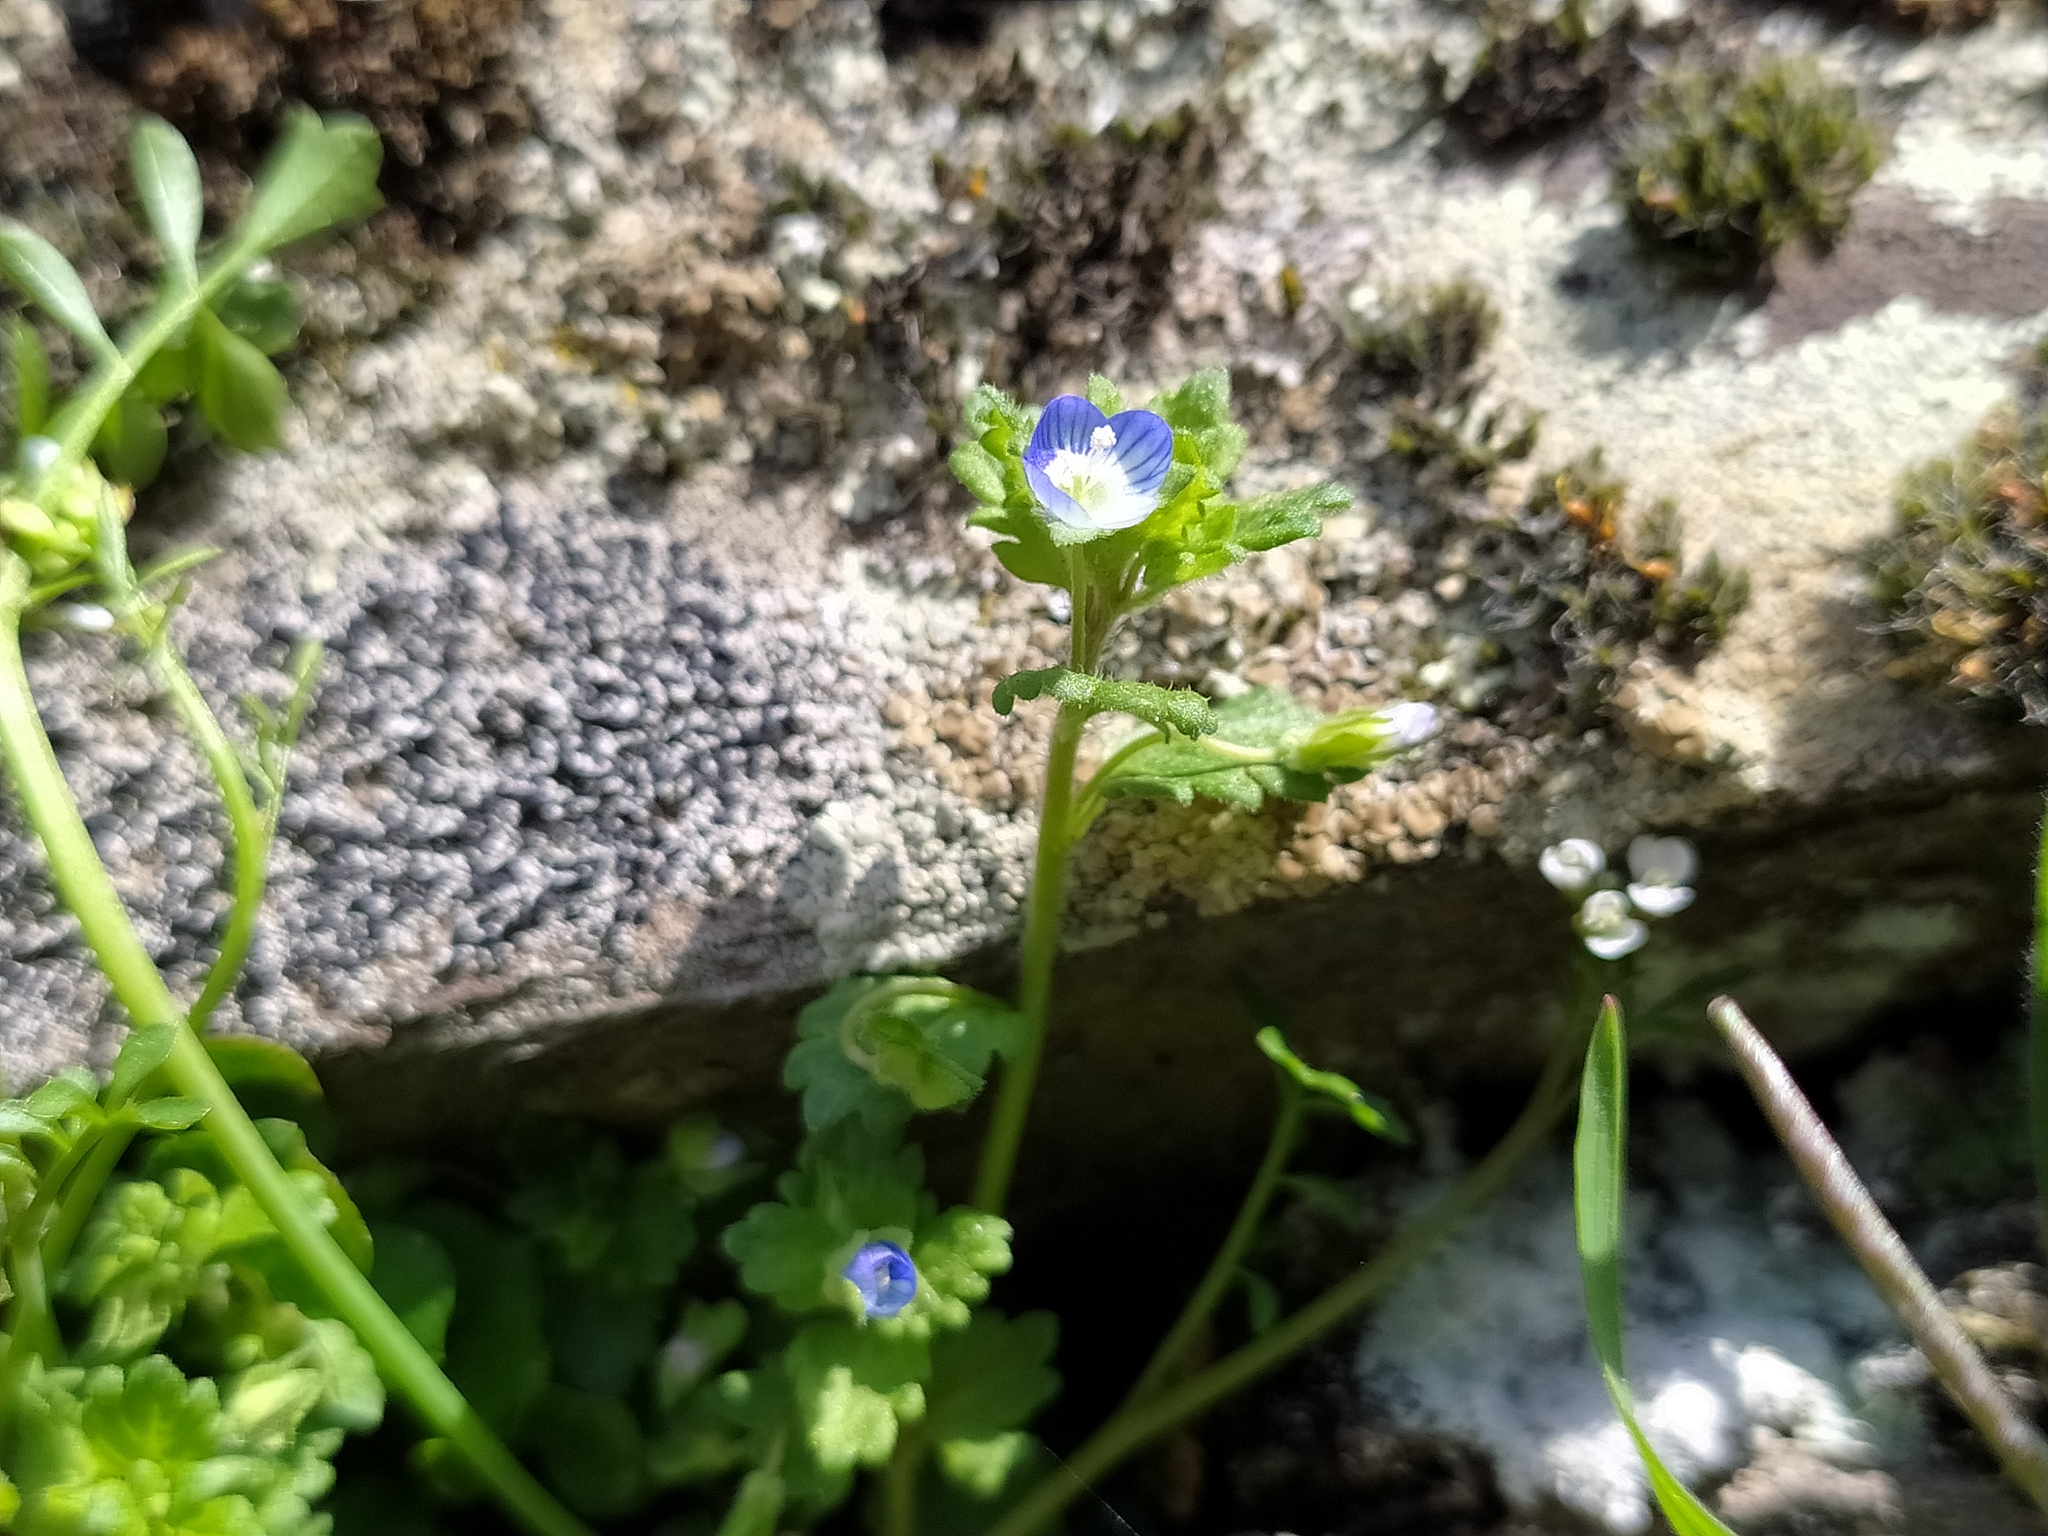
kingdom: Plantae
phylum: Tracheophyta
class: Magnoliopsida
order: Lamiales
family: Plantaginaceae
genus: Veronica
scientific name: Veronica polita
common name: Grey field-speedwell
